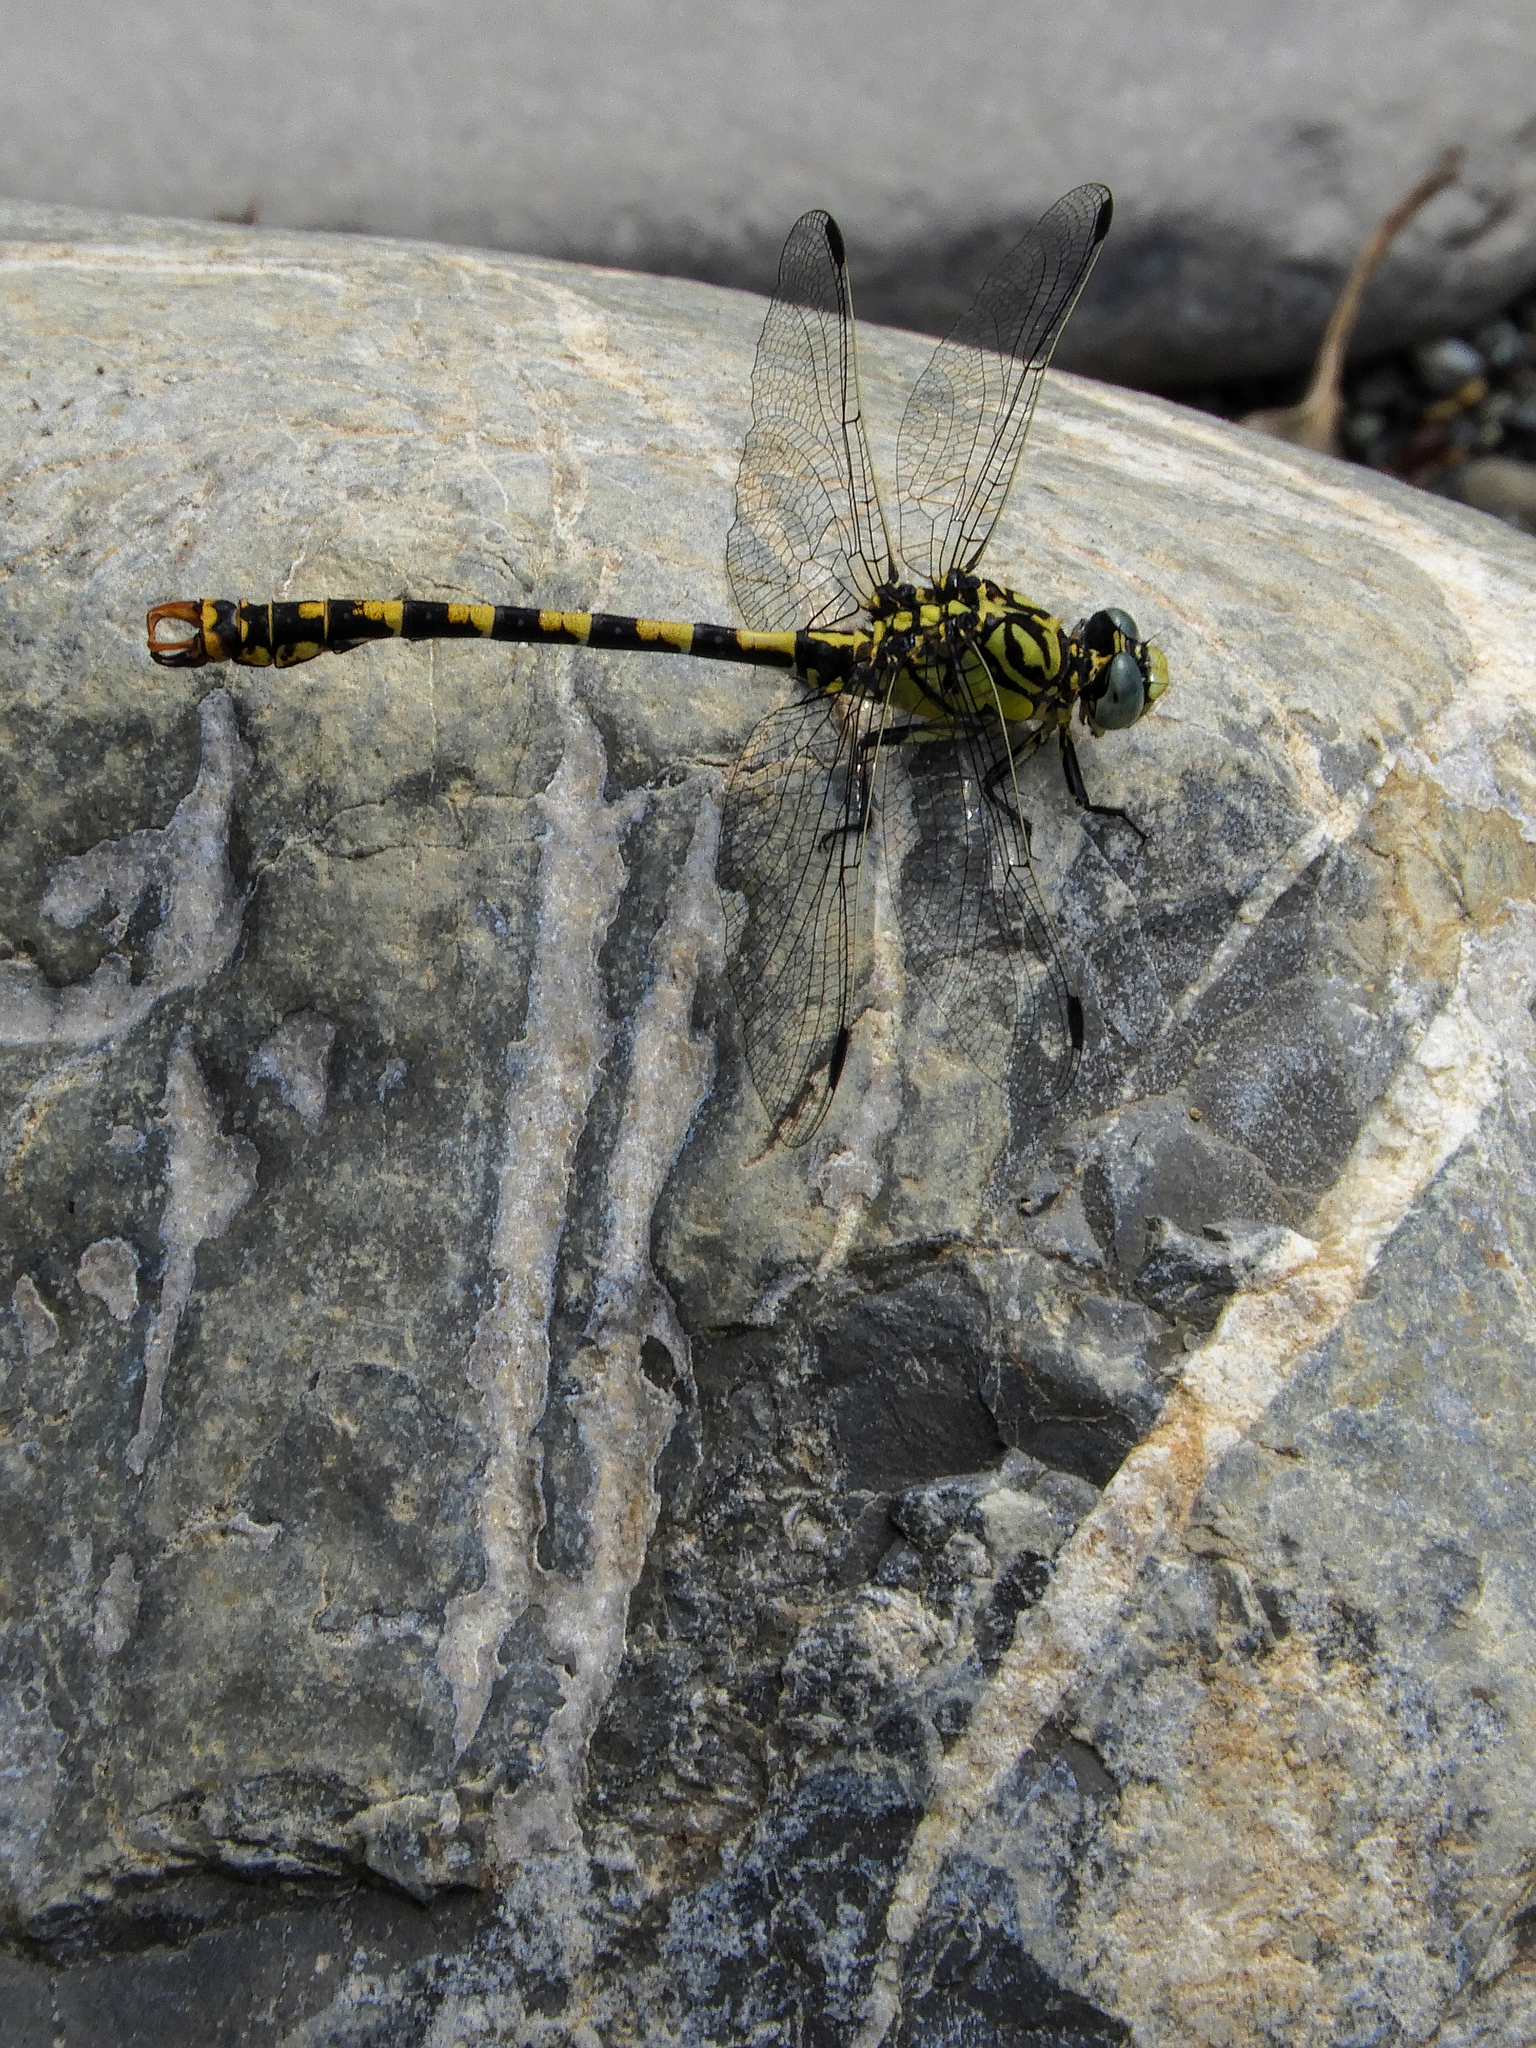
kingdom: Animalia
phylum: Arthropoda
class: Insecta
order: Odonata
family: Gomphidae
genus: Onychogomphus
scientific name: Onychogomphus forcipatus
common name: Small pincertail
